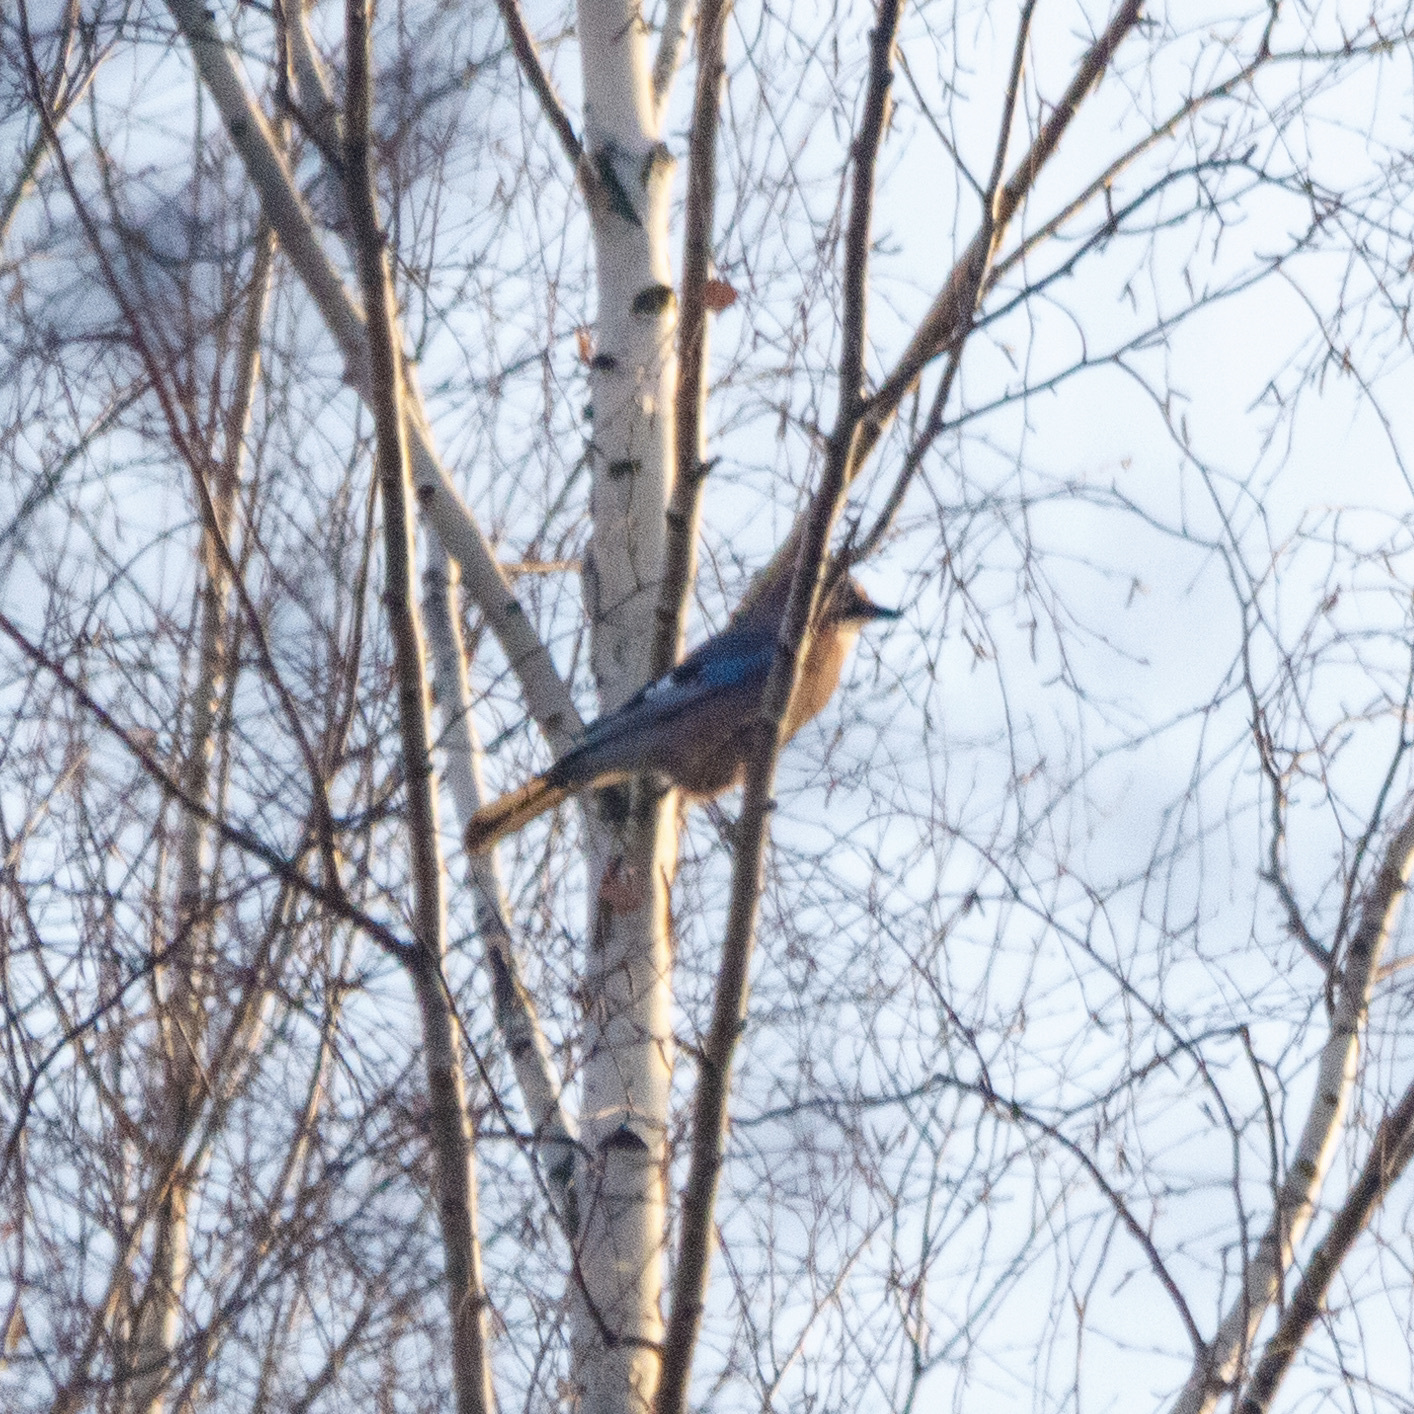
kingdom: Animalia
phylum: Chordata
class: Aves
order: Passeriformes
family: Corvidae
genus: Garrulus
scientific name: Garrulus glandarius
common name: Eurasian jay
